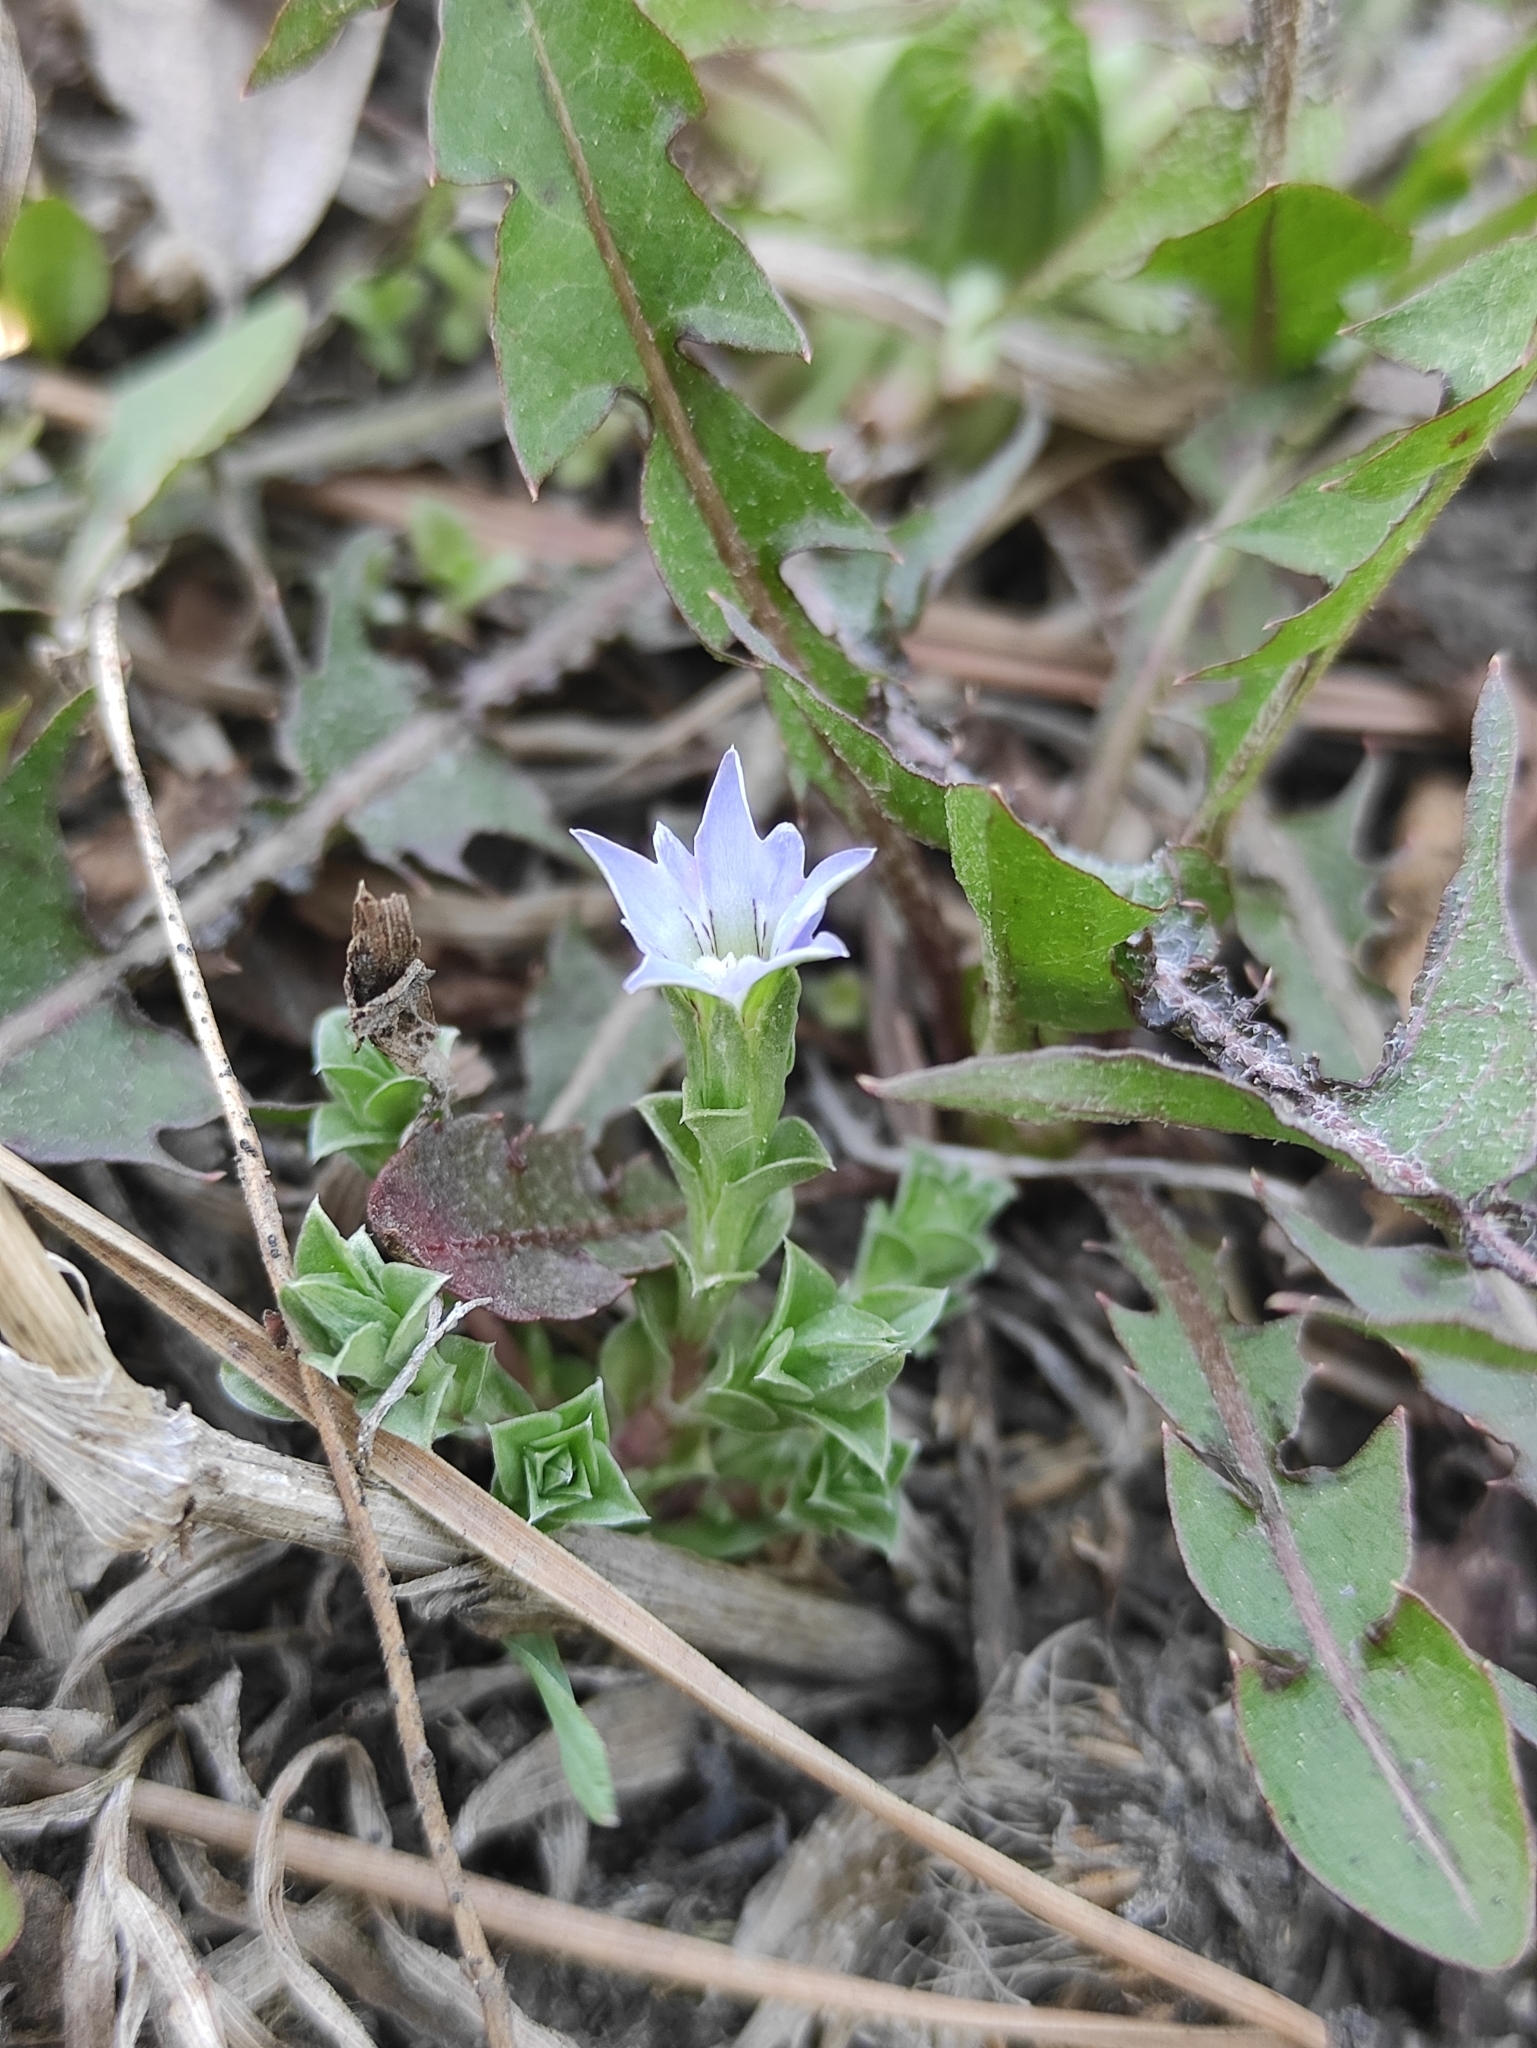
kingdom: Plantae
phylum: Tracheophyta
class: Magnoliopsida
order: Gentianales
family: Gentianaceae
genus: Gentiana
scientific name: Gentiana squarrosa
